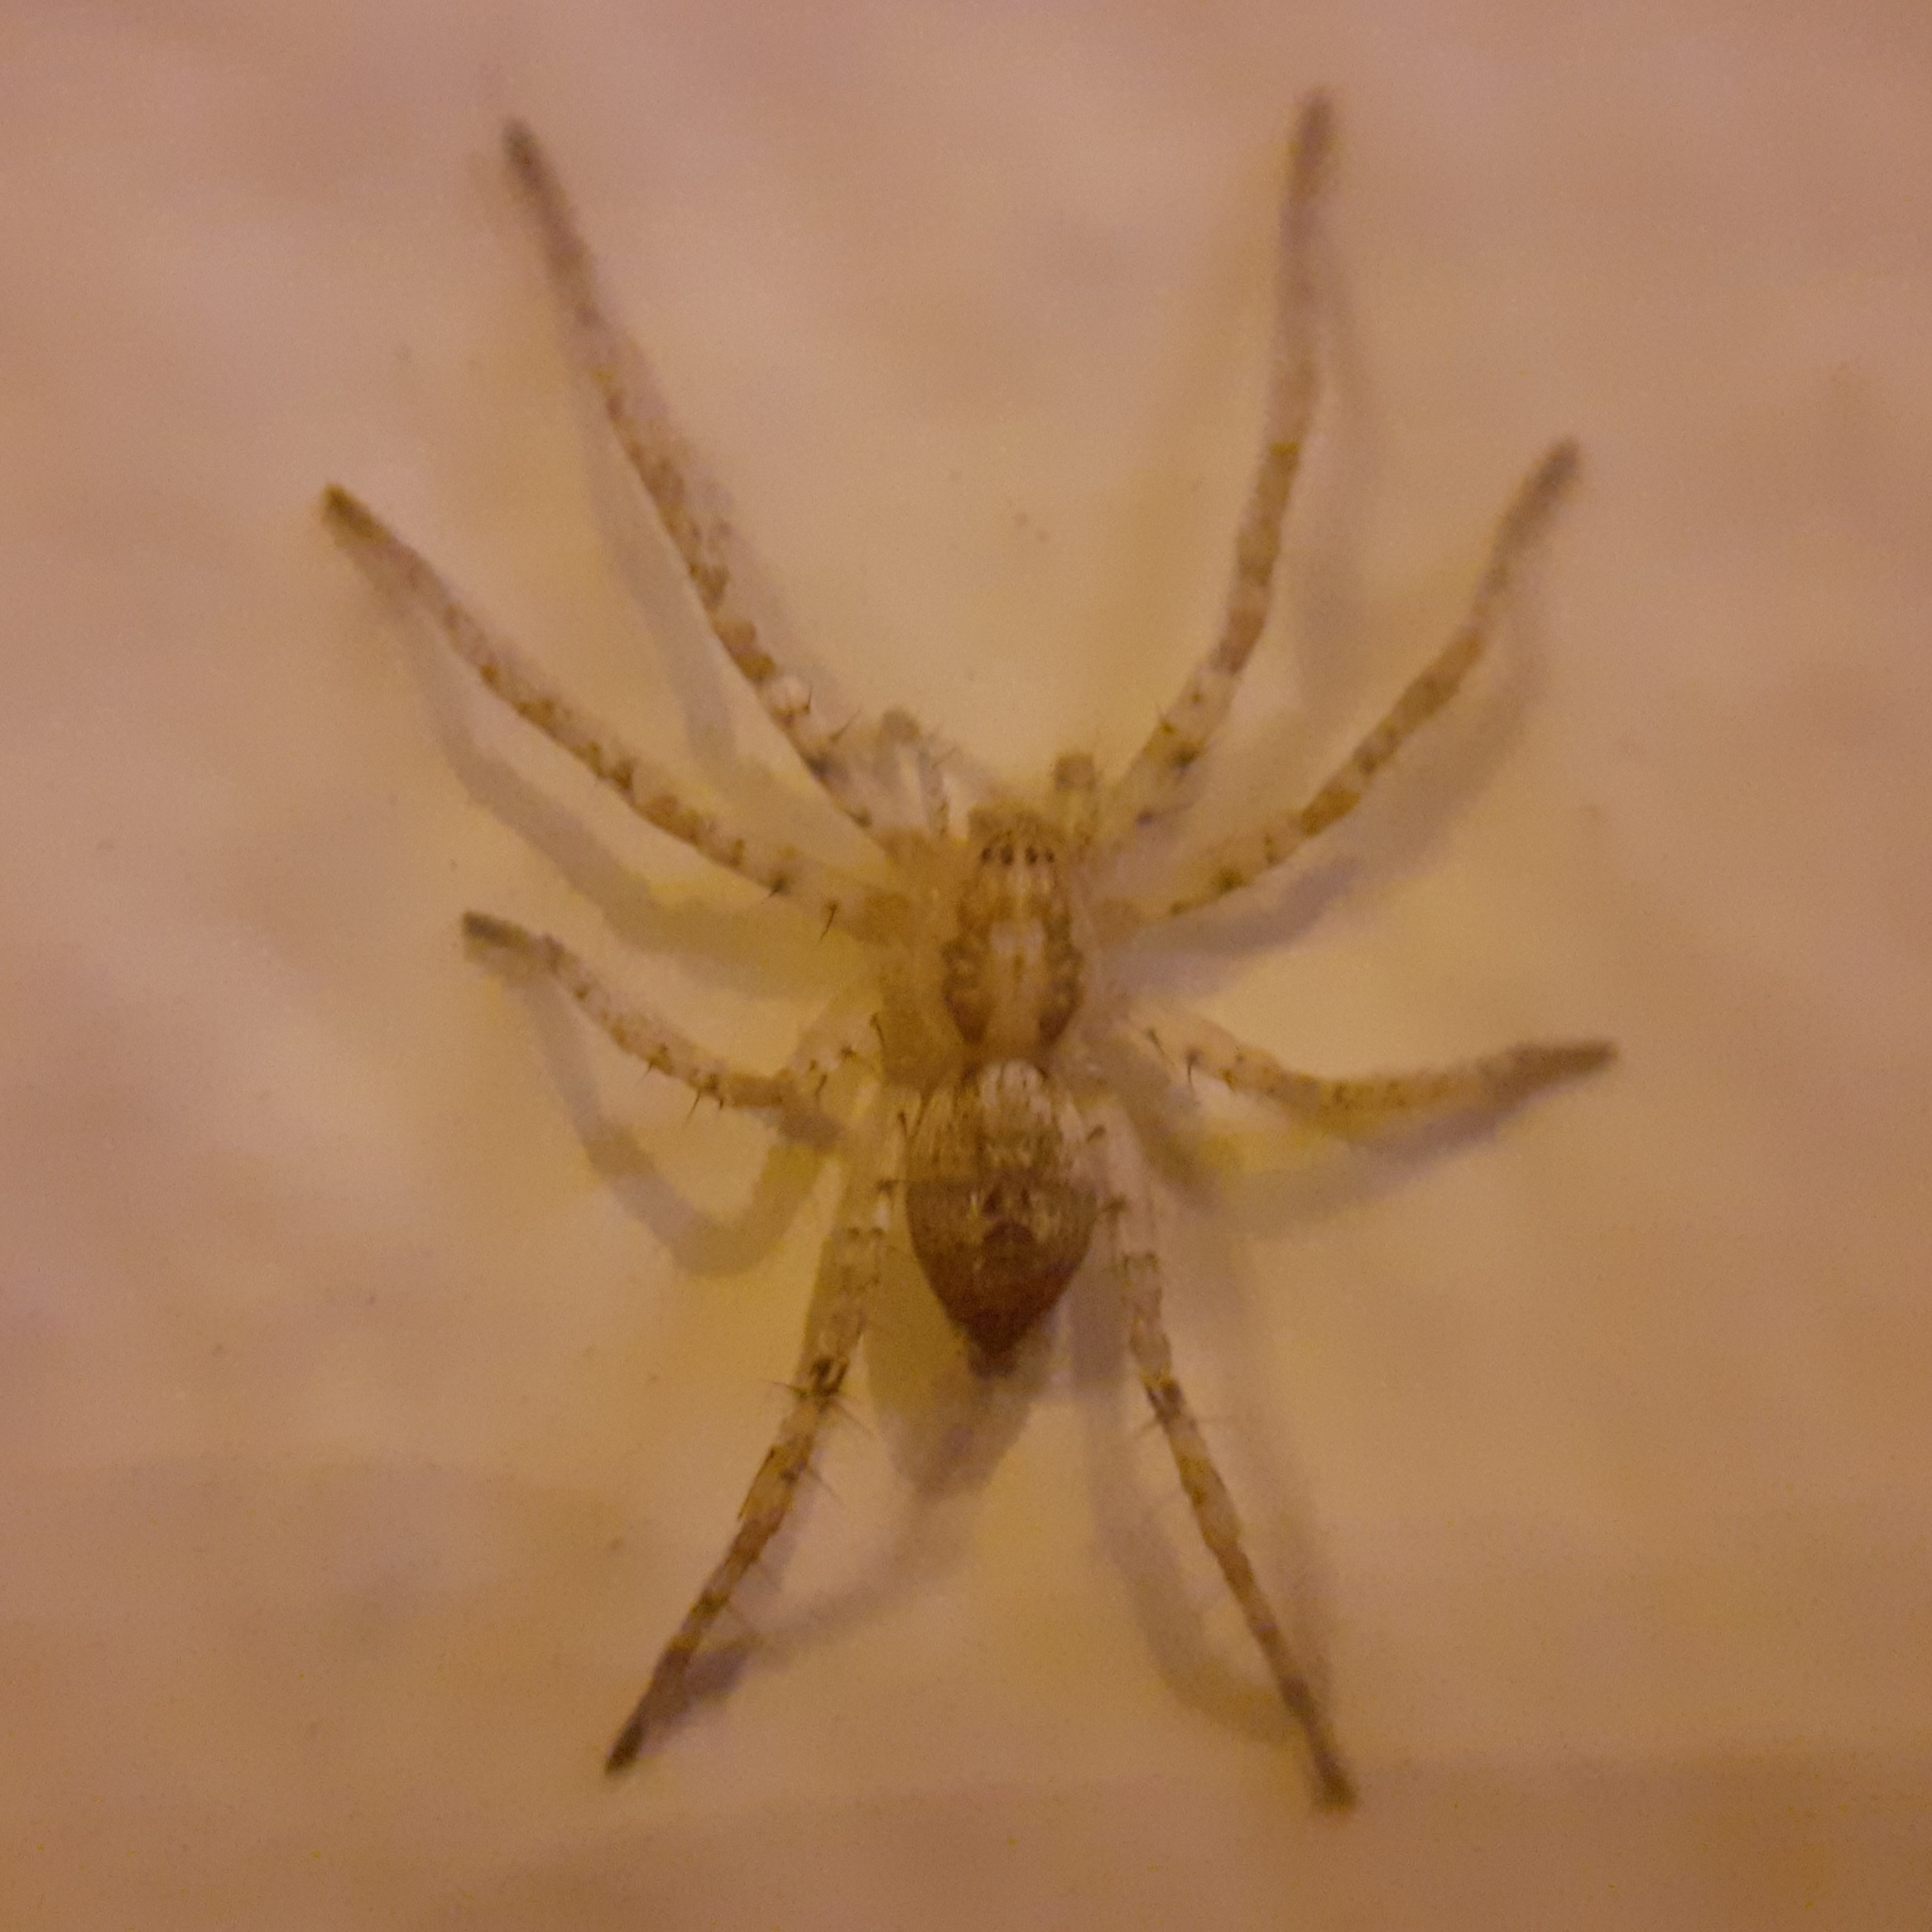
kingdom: Animalia
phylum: Arthropoda
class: Arachnida
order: Araneae
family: Anyphaenidae
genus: Anyphaena
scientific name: Anyphaena accentuata
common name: Buzzing spider
